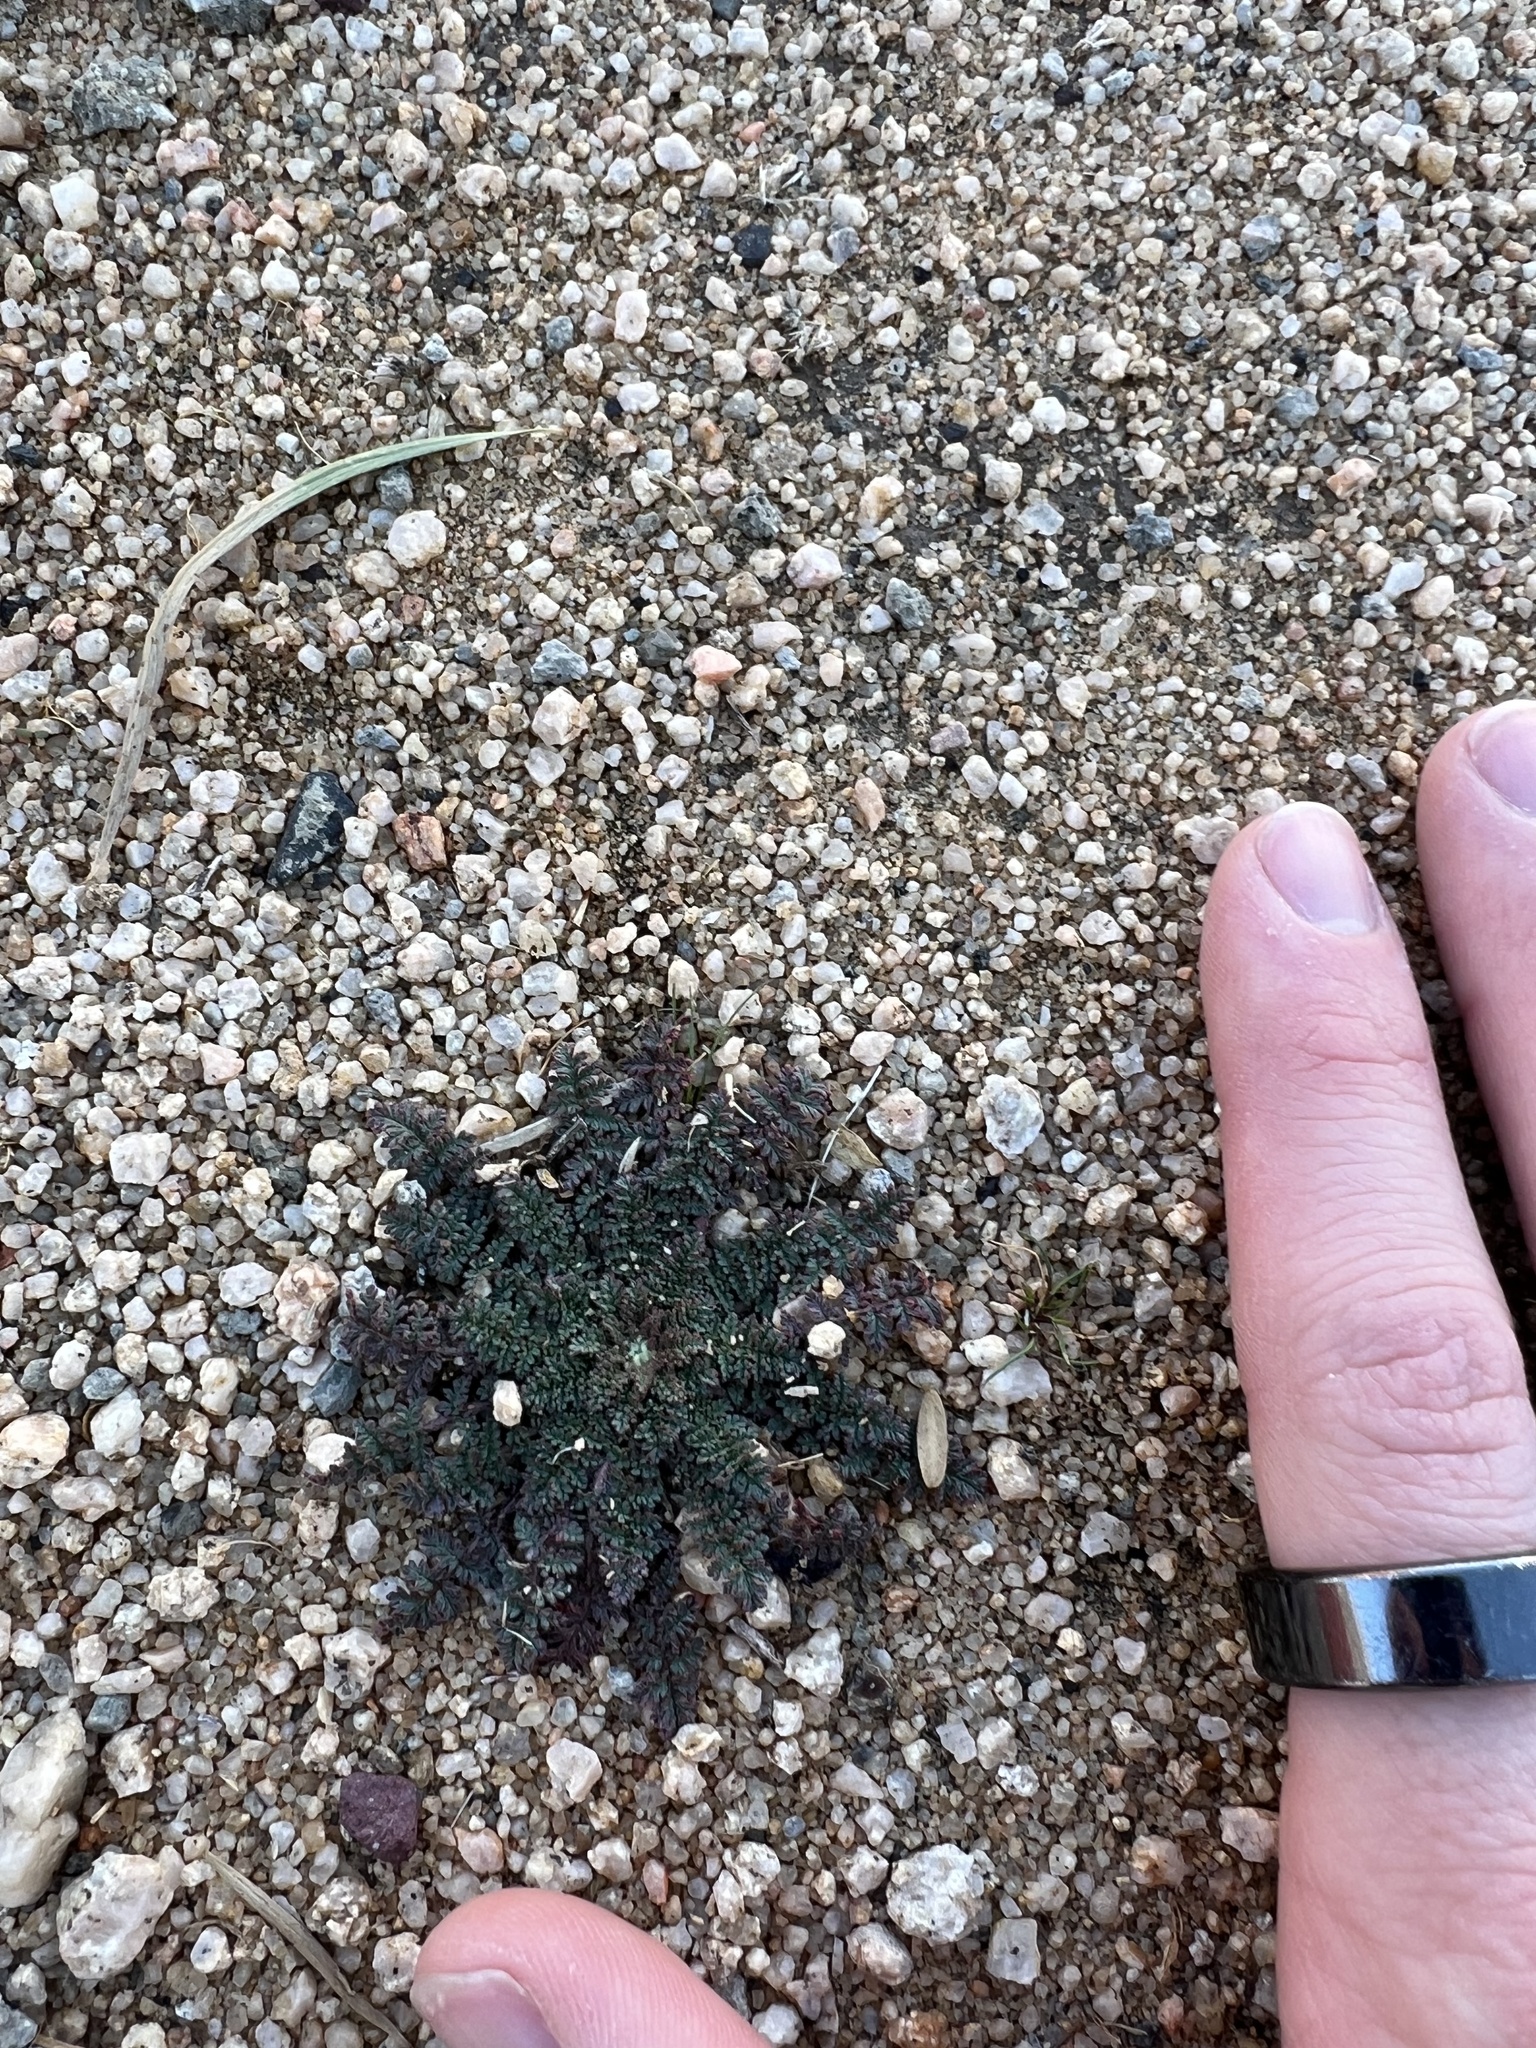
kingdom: Plantae
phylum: Tracheophyta
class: Magnoliopsida
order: Geraniales
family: Geraniaceae
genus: Erodium
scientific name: Erodium cicutarium
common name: Common stork's-bill
